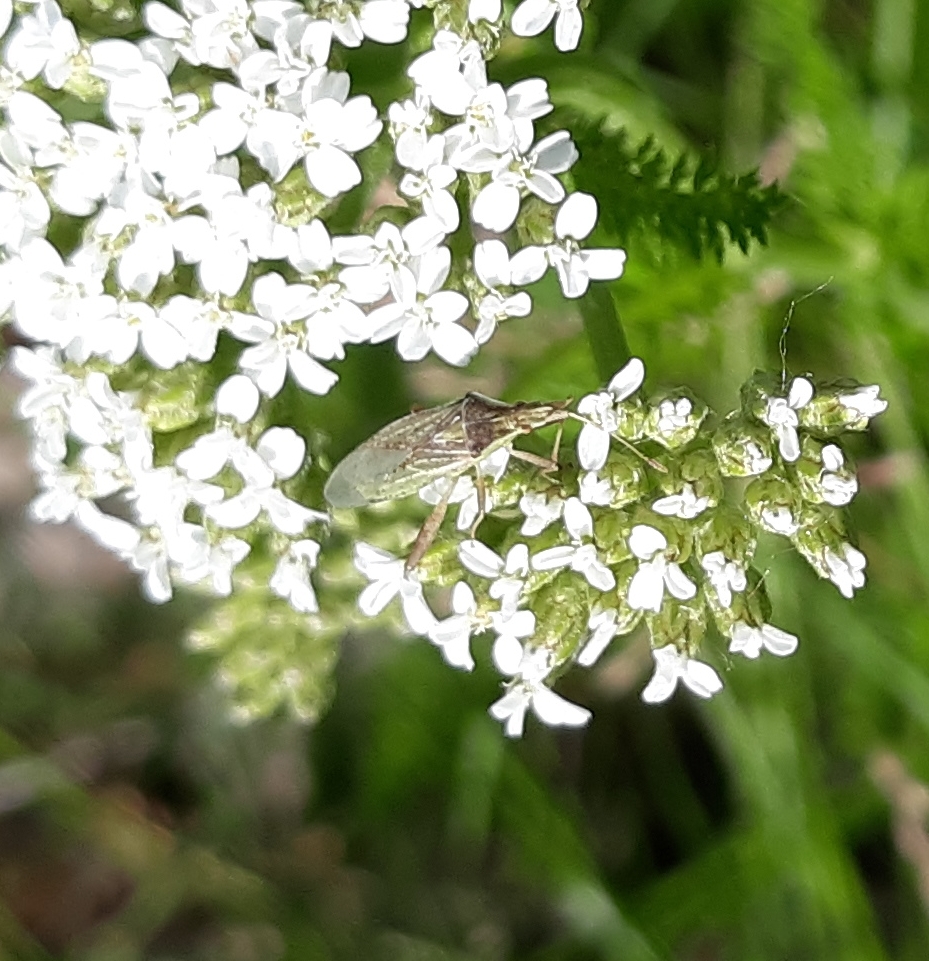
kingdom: Animalia
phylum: Arthropoda
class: Insecta
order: Hemiptera
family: Rhopalidae
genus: Harmostes
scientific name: Harmostes reflexulus
